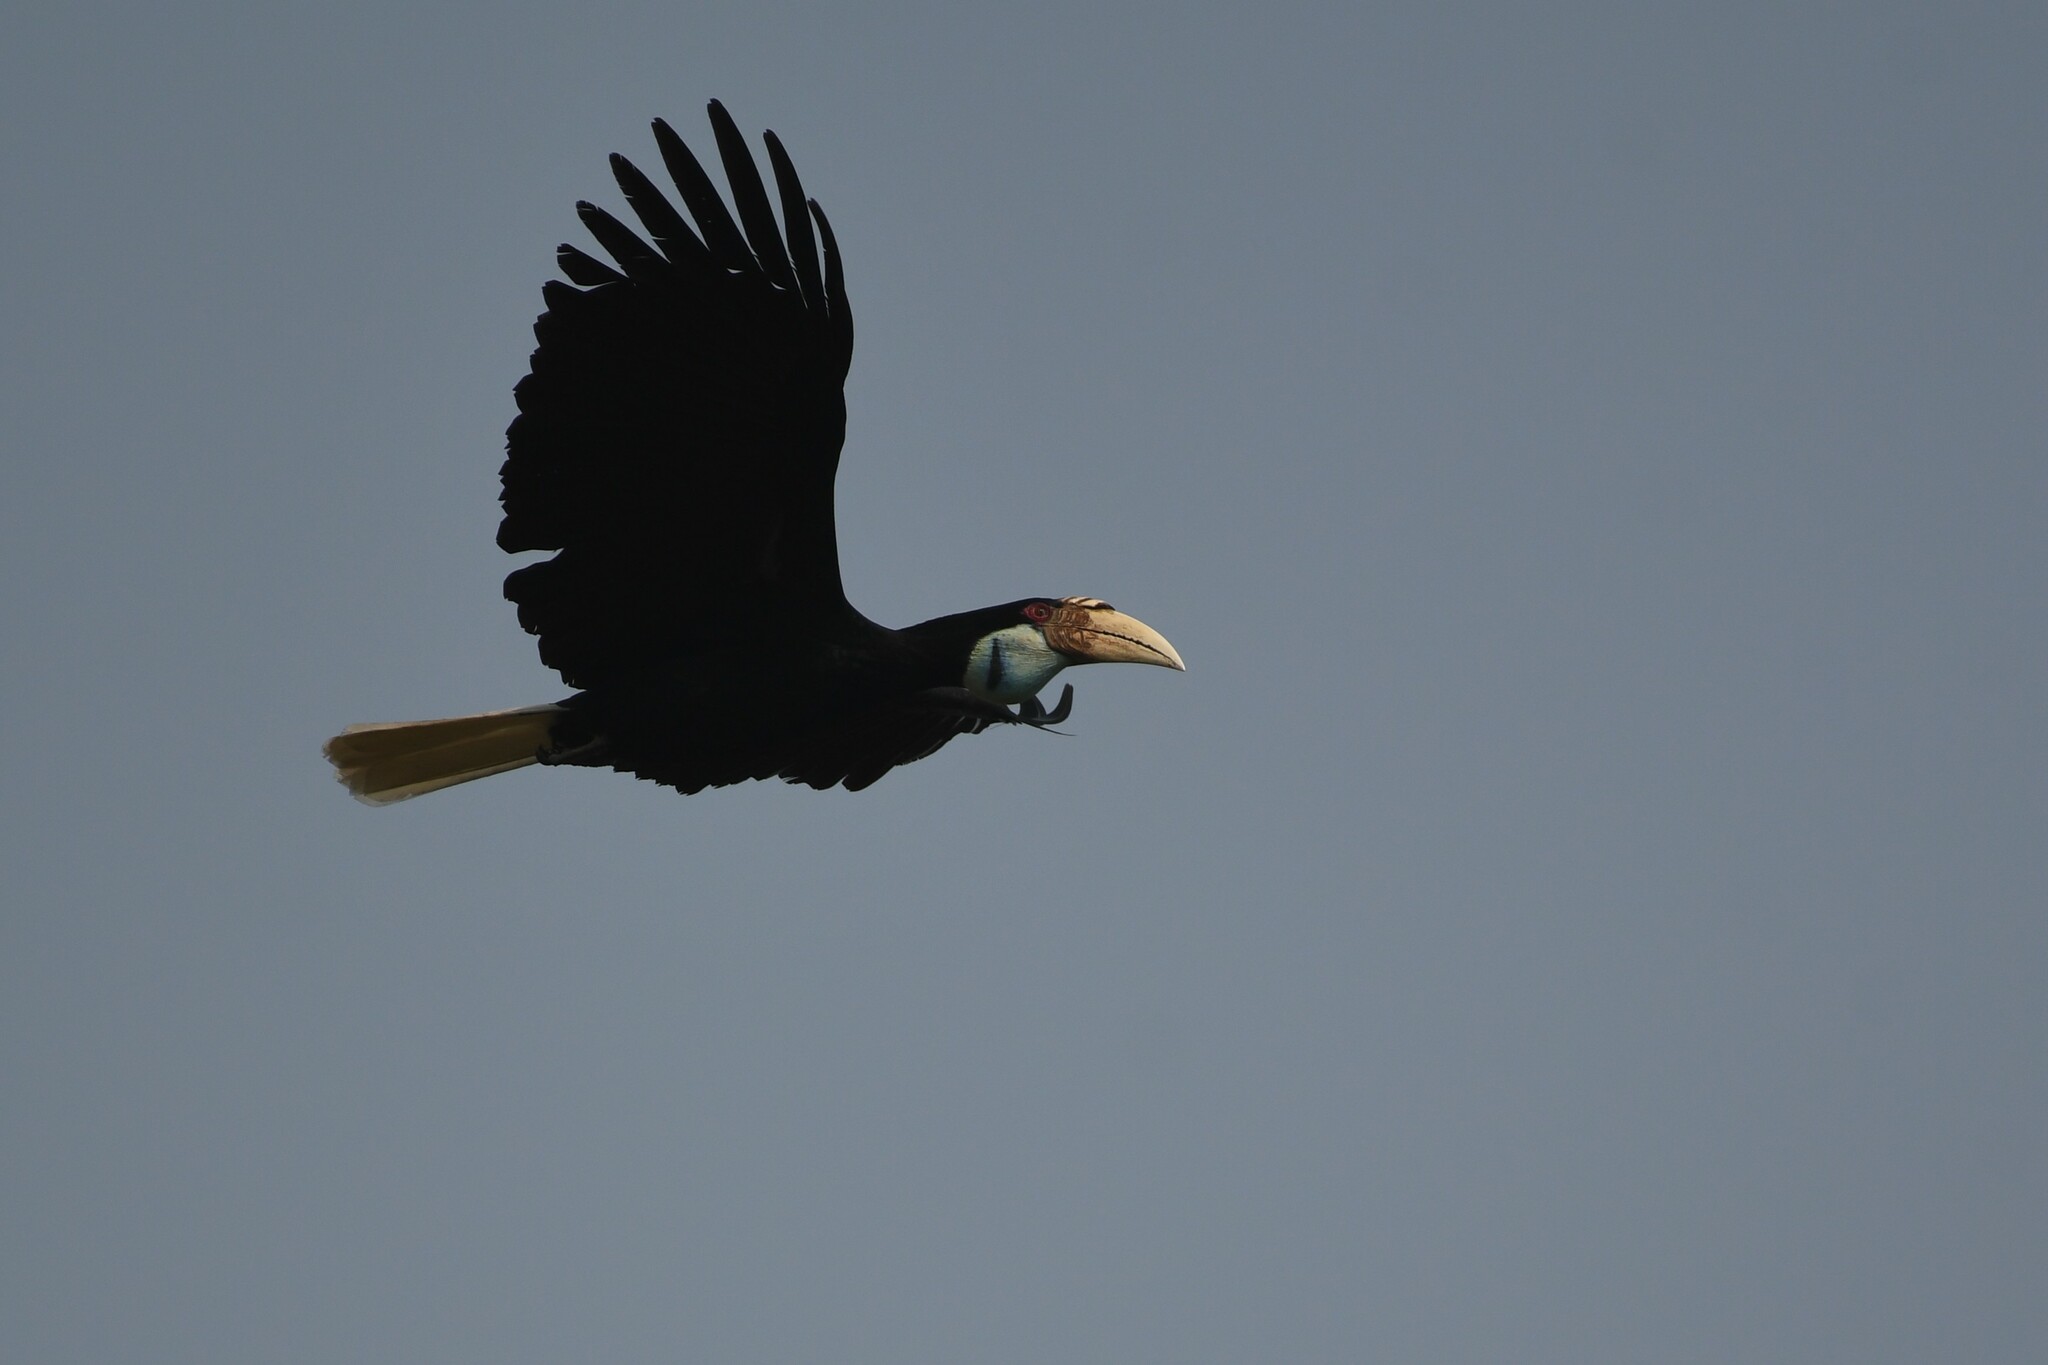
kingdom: Animalia
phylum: Chordata
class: Aves
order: Bucerotiformes
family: Bucerotidae
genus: Rhyticeros
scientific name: Rhyticeros undulatus
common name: Wreathed hornbill
